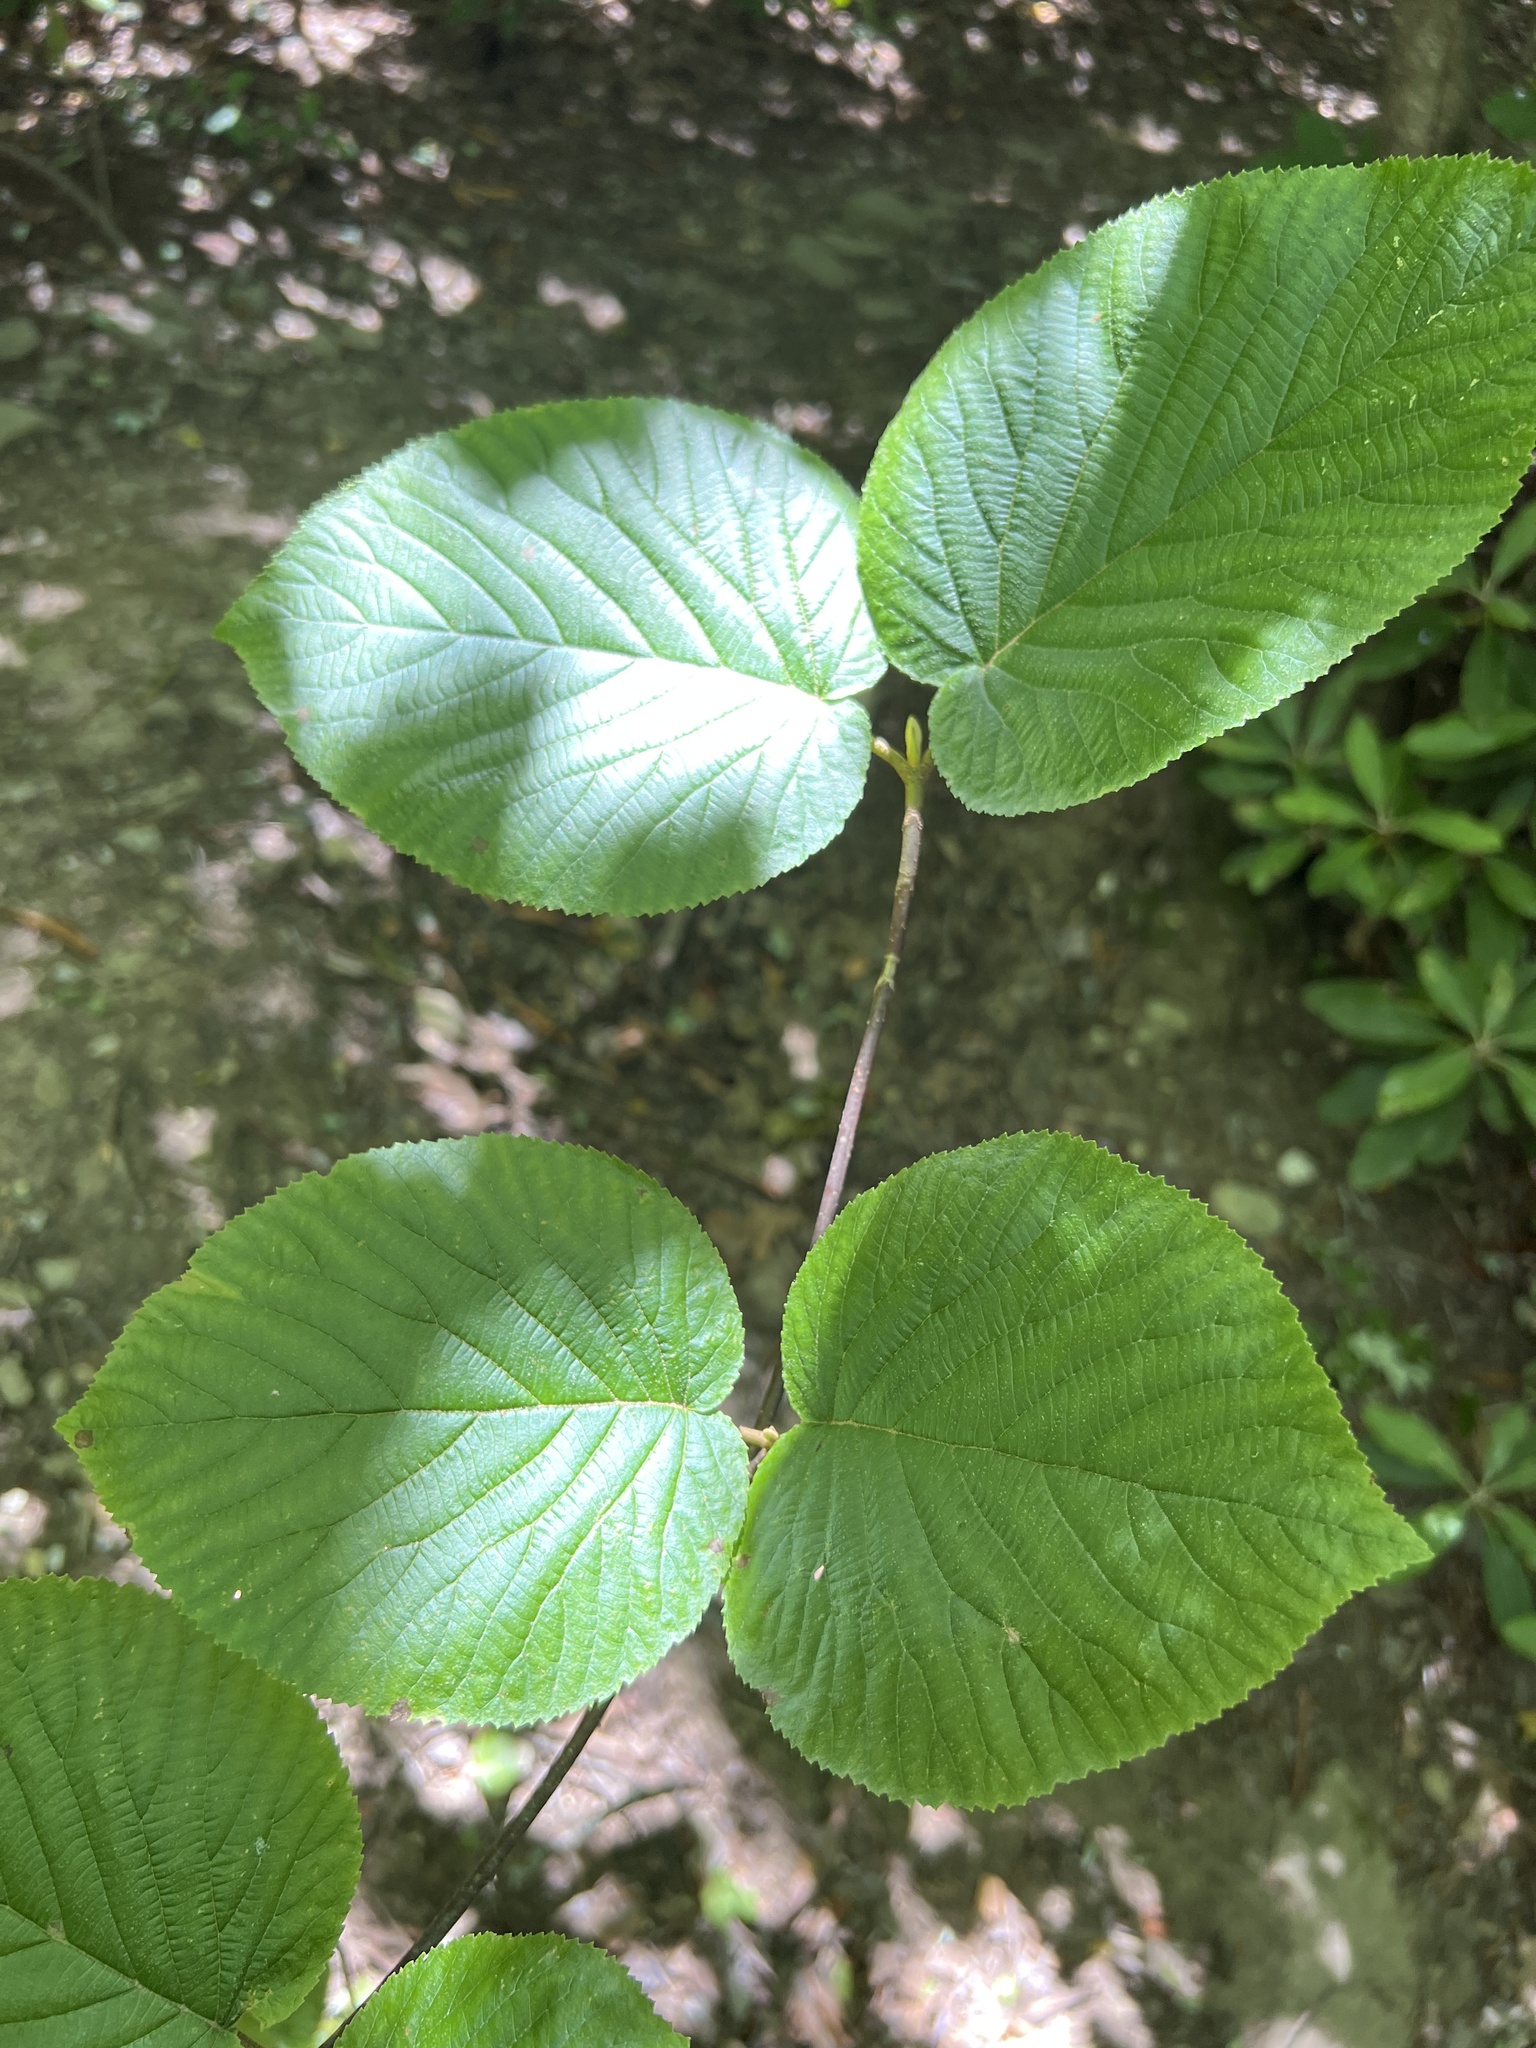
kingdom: Plantae
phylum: Tracheophyta
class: Magnoliopsida
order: Dipsacales
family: Viburnaceae
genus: Viburnum
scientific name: Viburnum lantanoides
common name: Hobblebush
